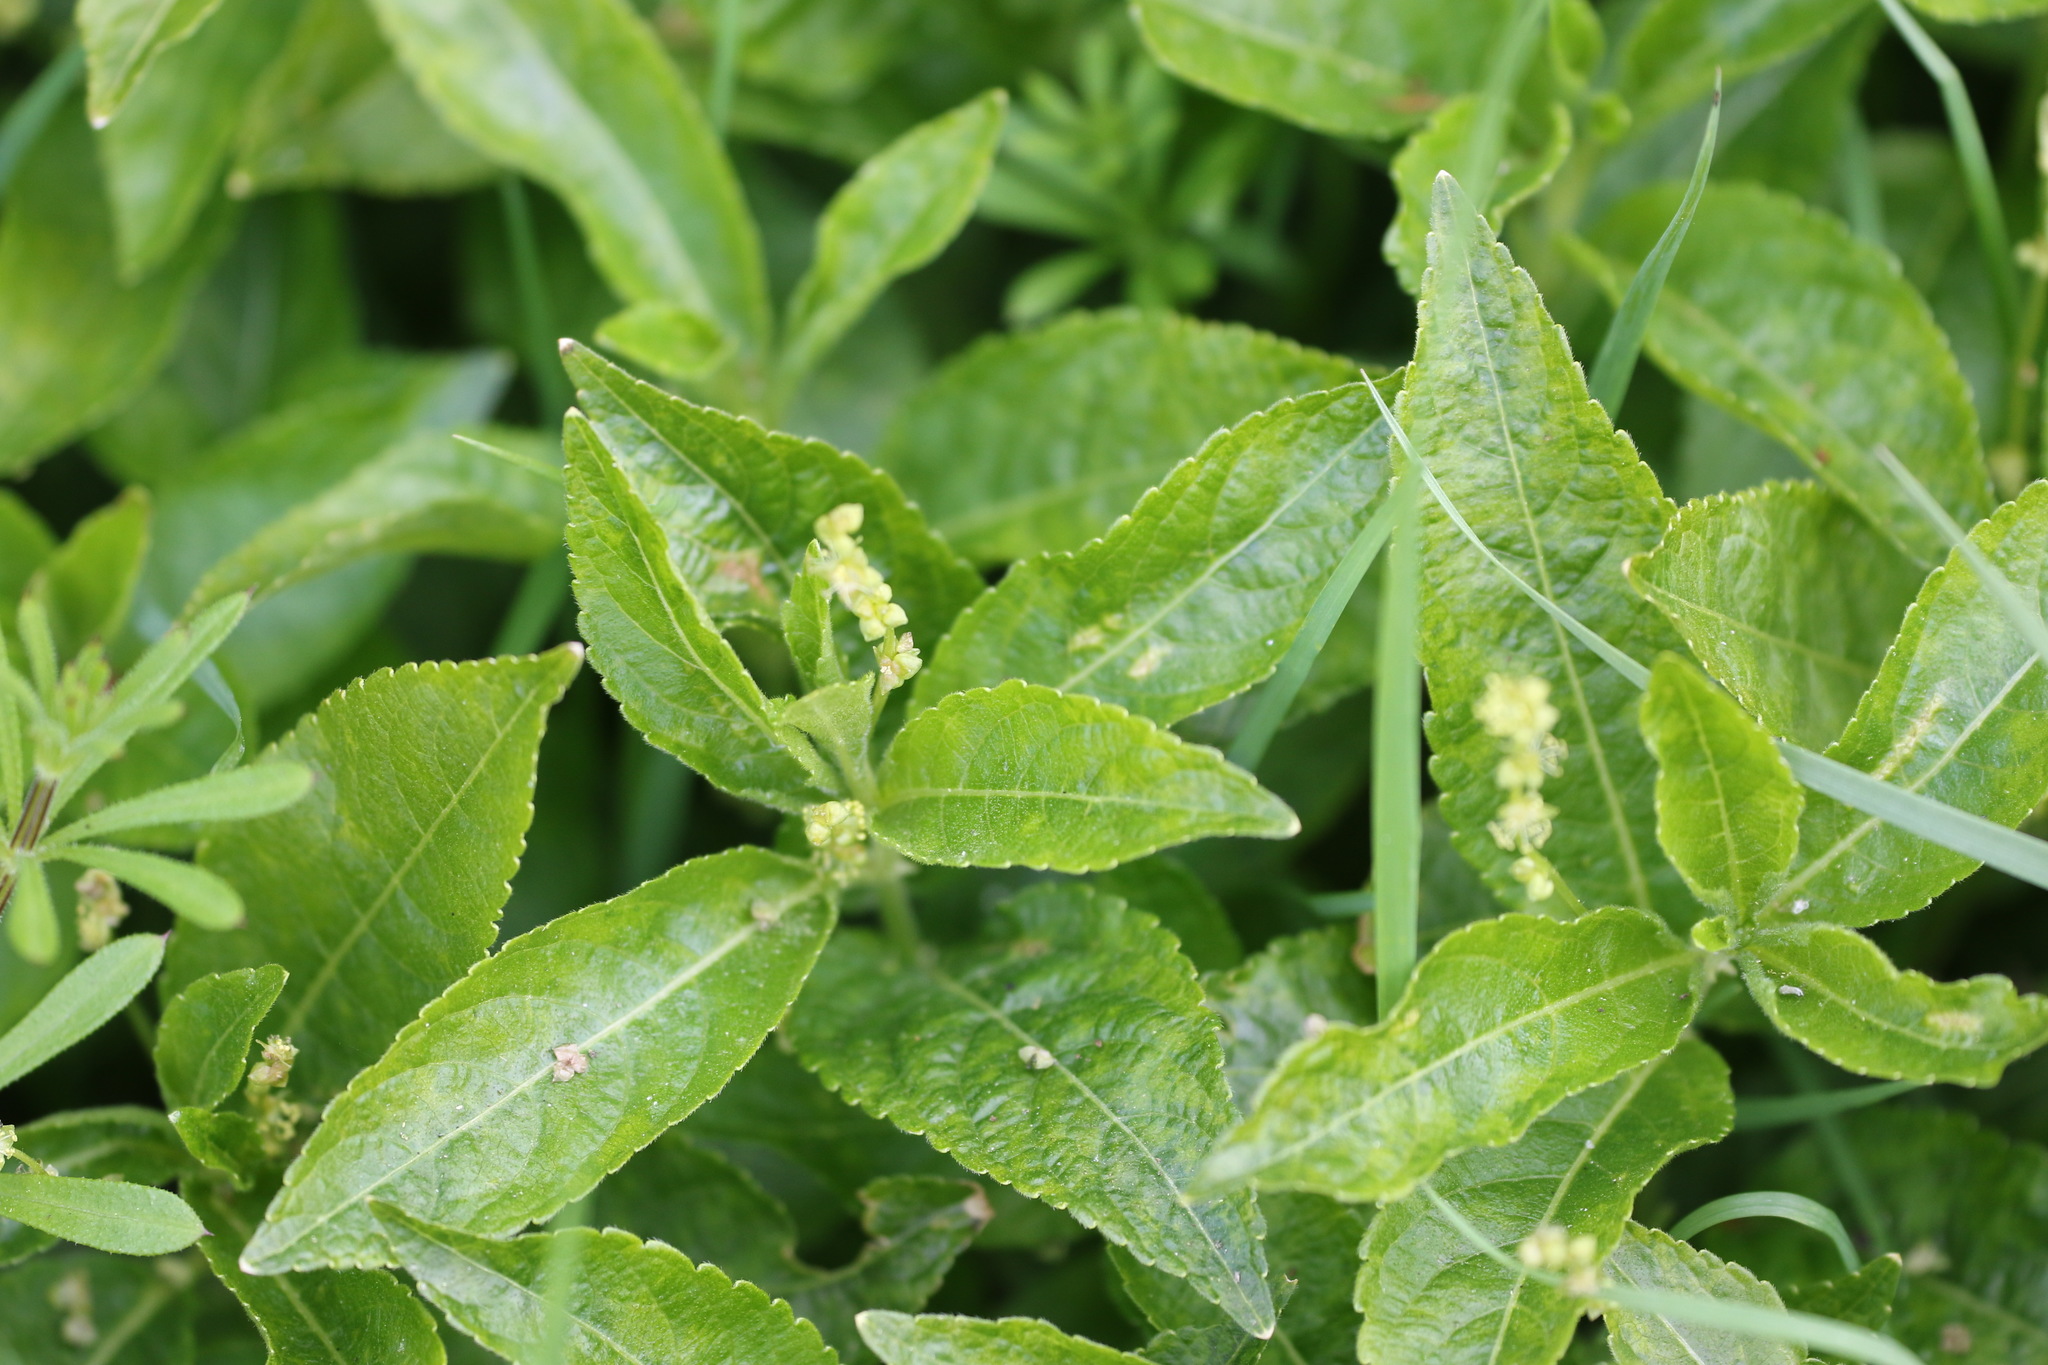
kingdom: Plantae
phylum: Tracheophyta
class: Magnoliopsida
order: Malpighiales
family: Euphorbiaceae
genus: Mercurialis
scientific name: Mercurialis perennis
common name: Dog mercury
